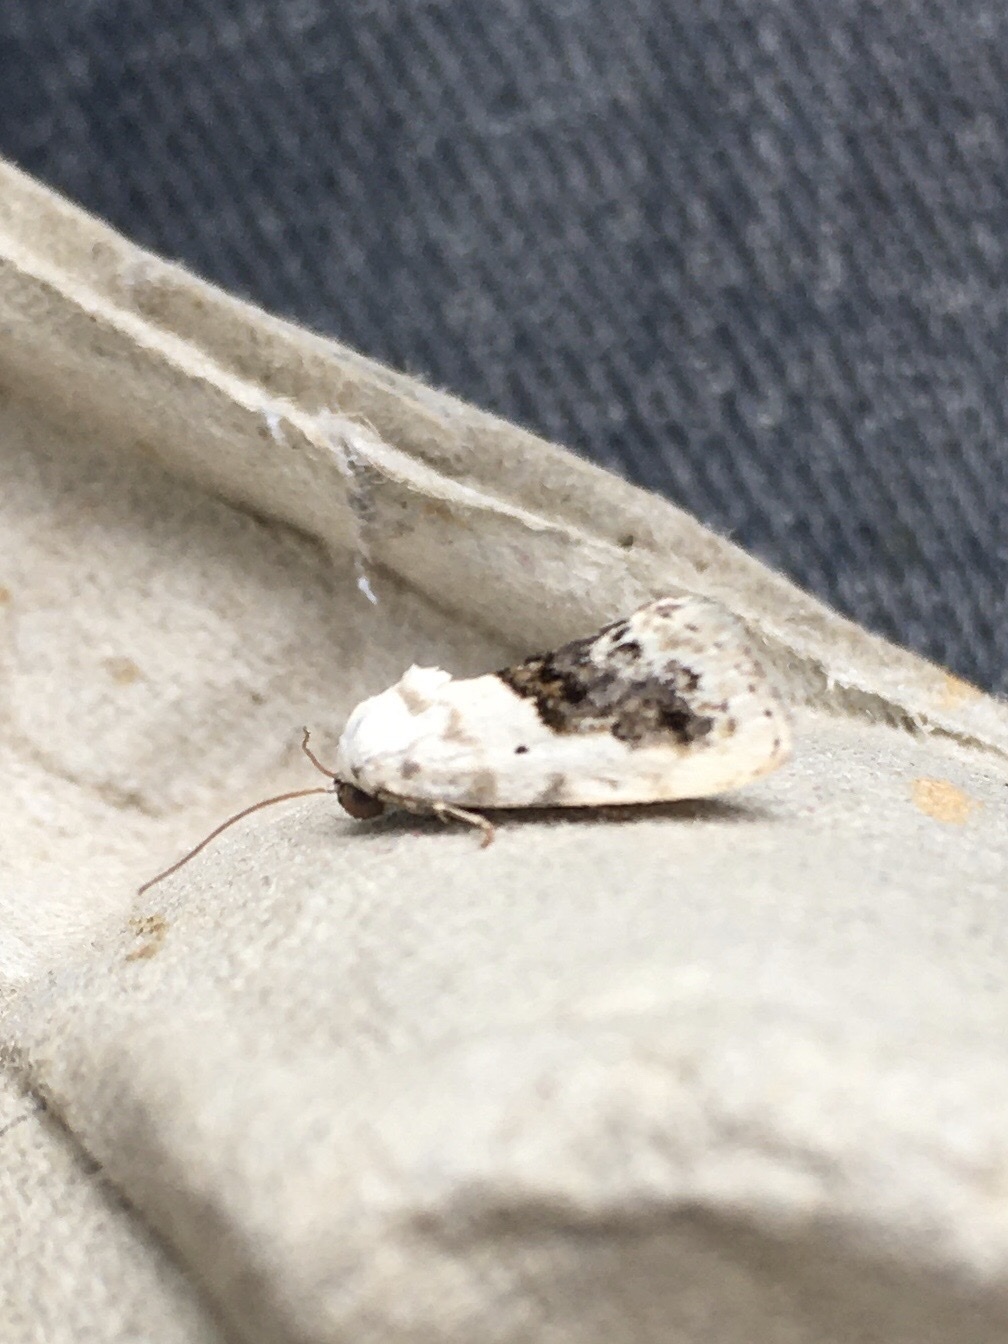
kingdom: Animalia
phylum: Arthropoda
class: Insecta
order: Lepidoptera
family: Noctuidae
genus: Acontia
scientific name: Acontia erastrioides
